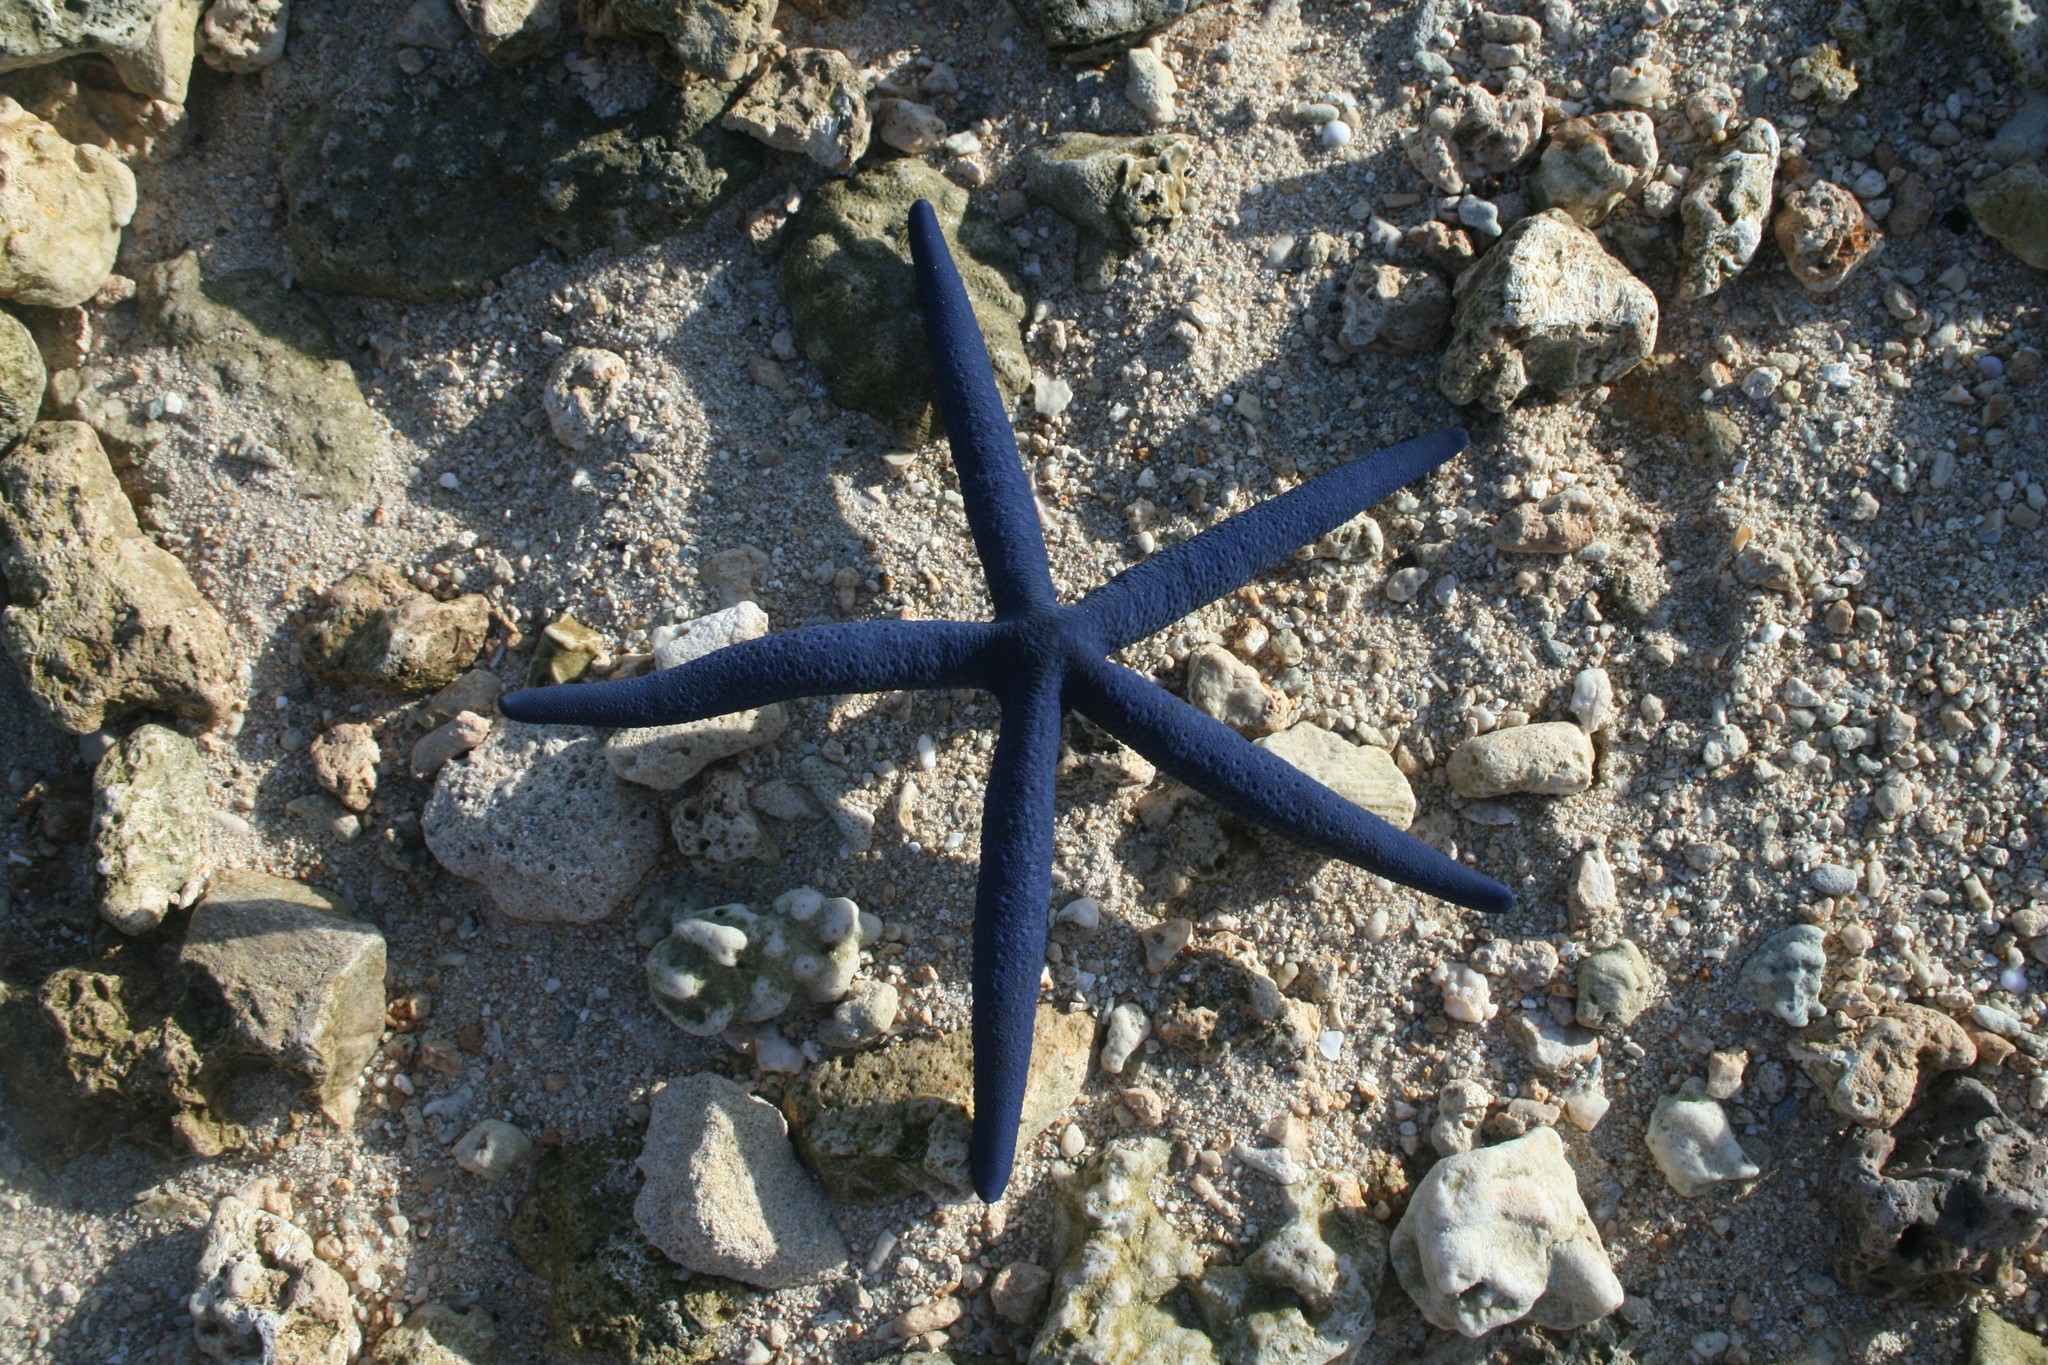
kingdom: Animalia
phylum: Echinodermata
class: Asteroidea
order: Valvatida
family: Ophidiasteridae
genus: Linckia
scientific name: Linckia laevigata
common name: Azure sea star
